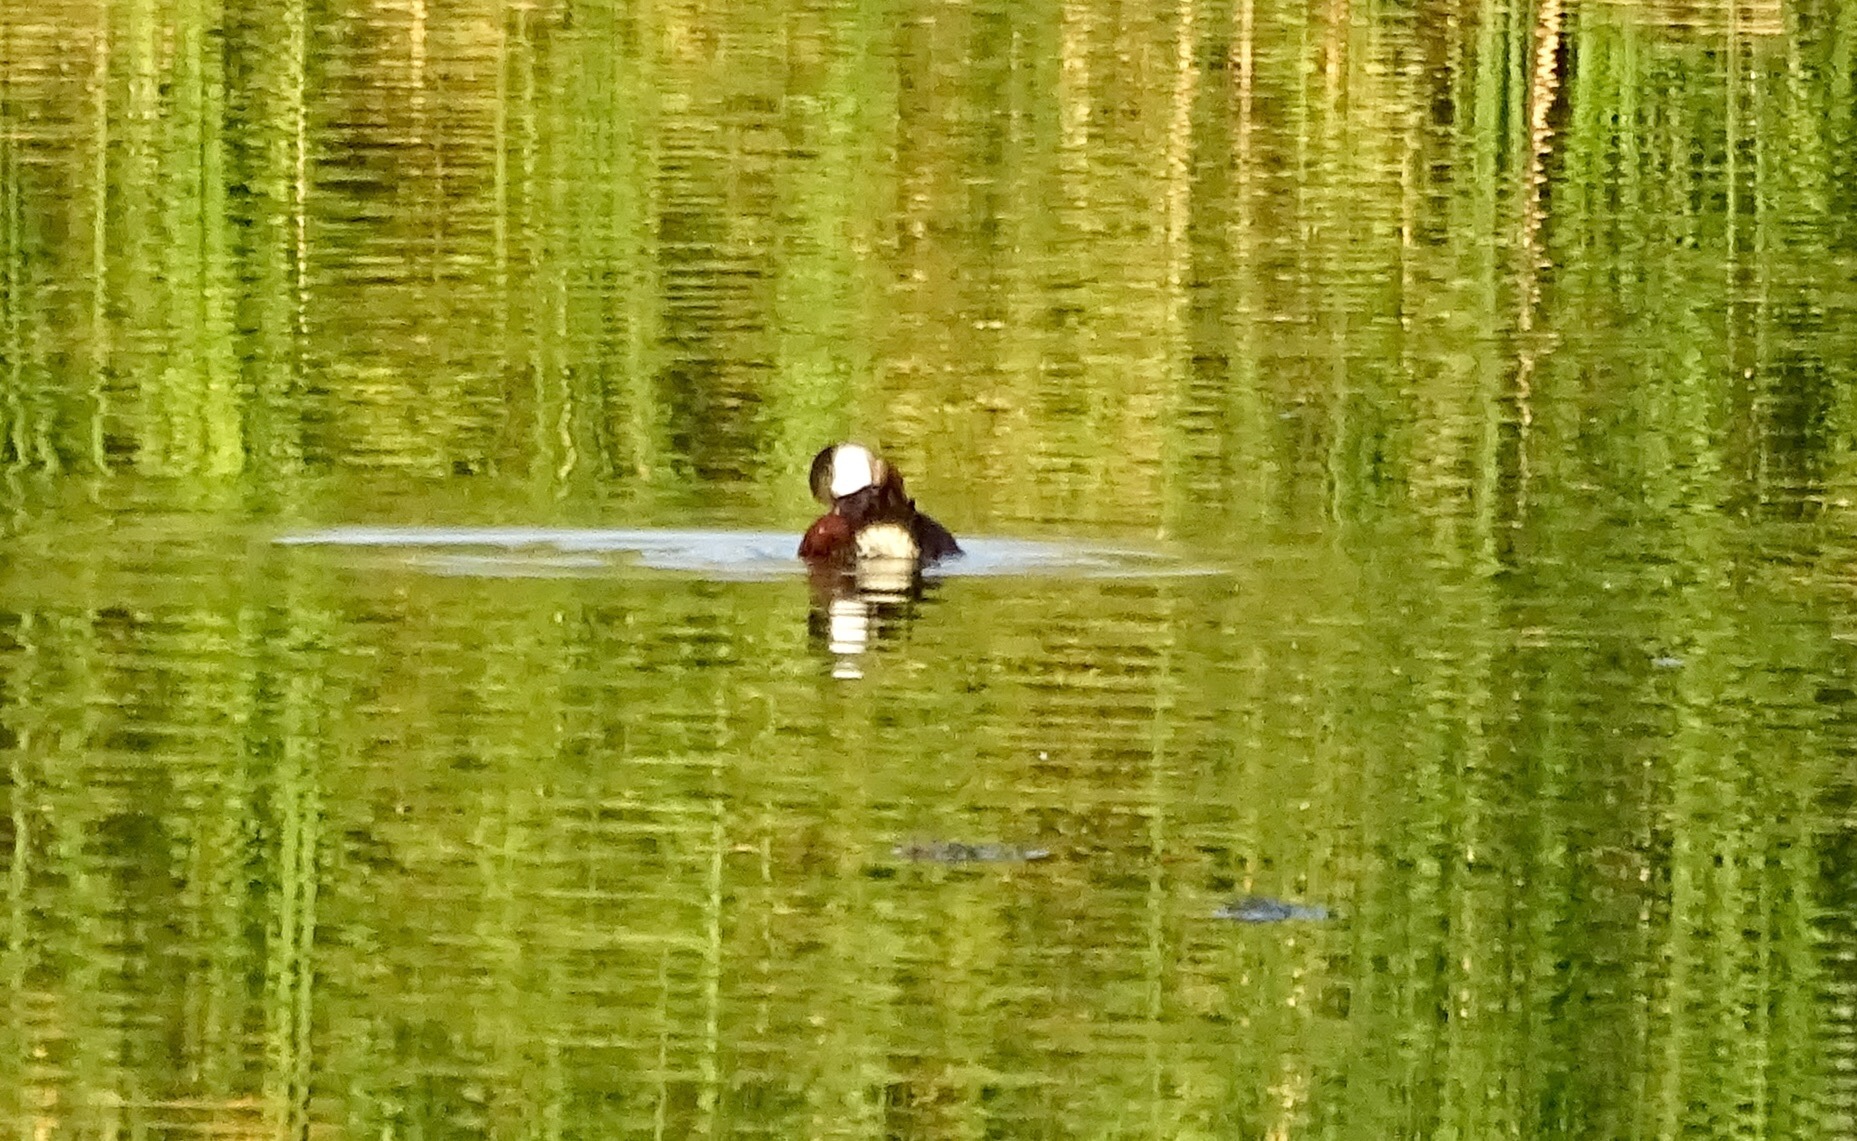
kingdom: Animalia
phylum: Chordata
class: Aves
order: Anseriformes
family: Anatidae
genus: Oxyura
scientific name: Oxyura jamaicensis
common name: Ruddy duck
